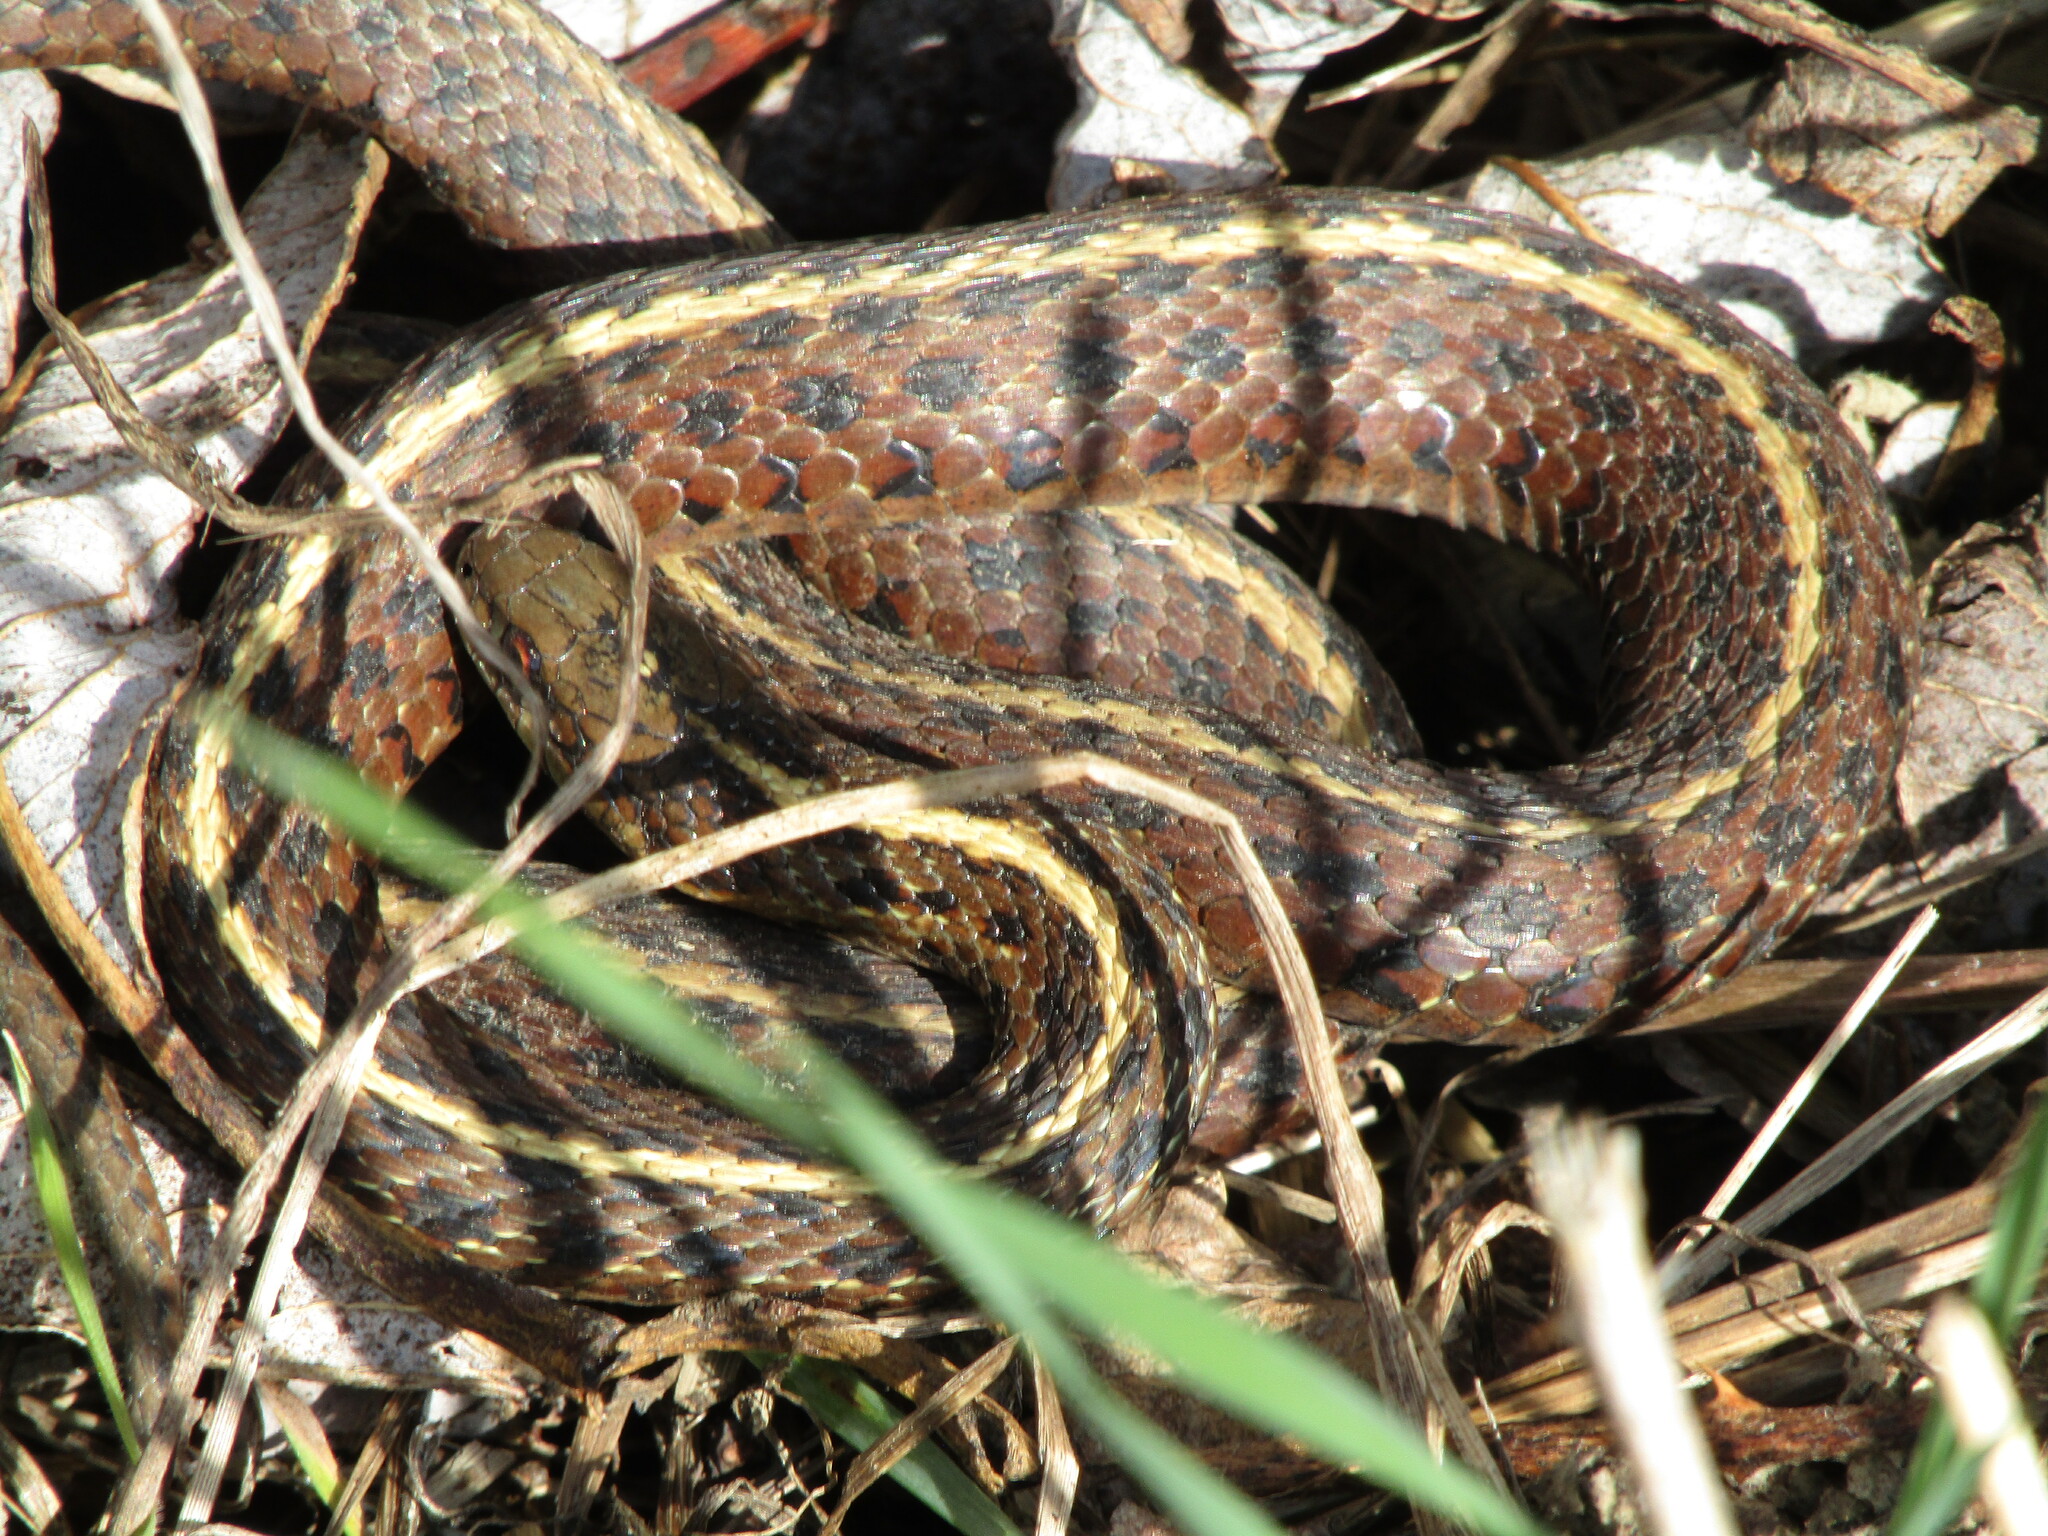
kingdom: Animalia
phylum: Chordata
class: Squamata
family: Colubridae
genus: Thamnophis
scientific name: Thamnophis ordinoides
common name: Northwestern garter snake
